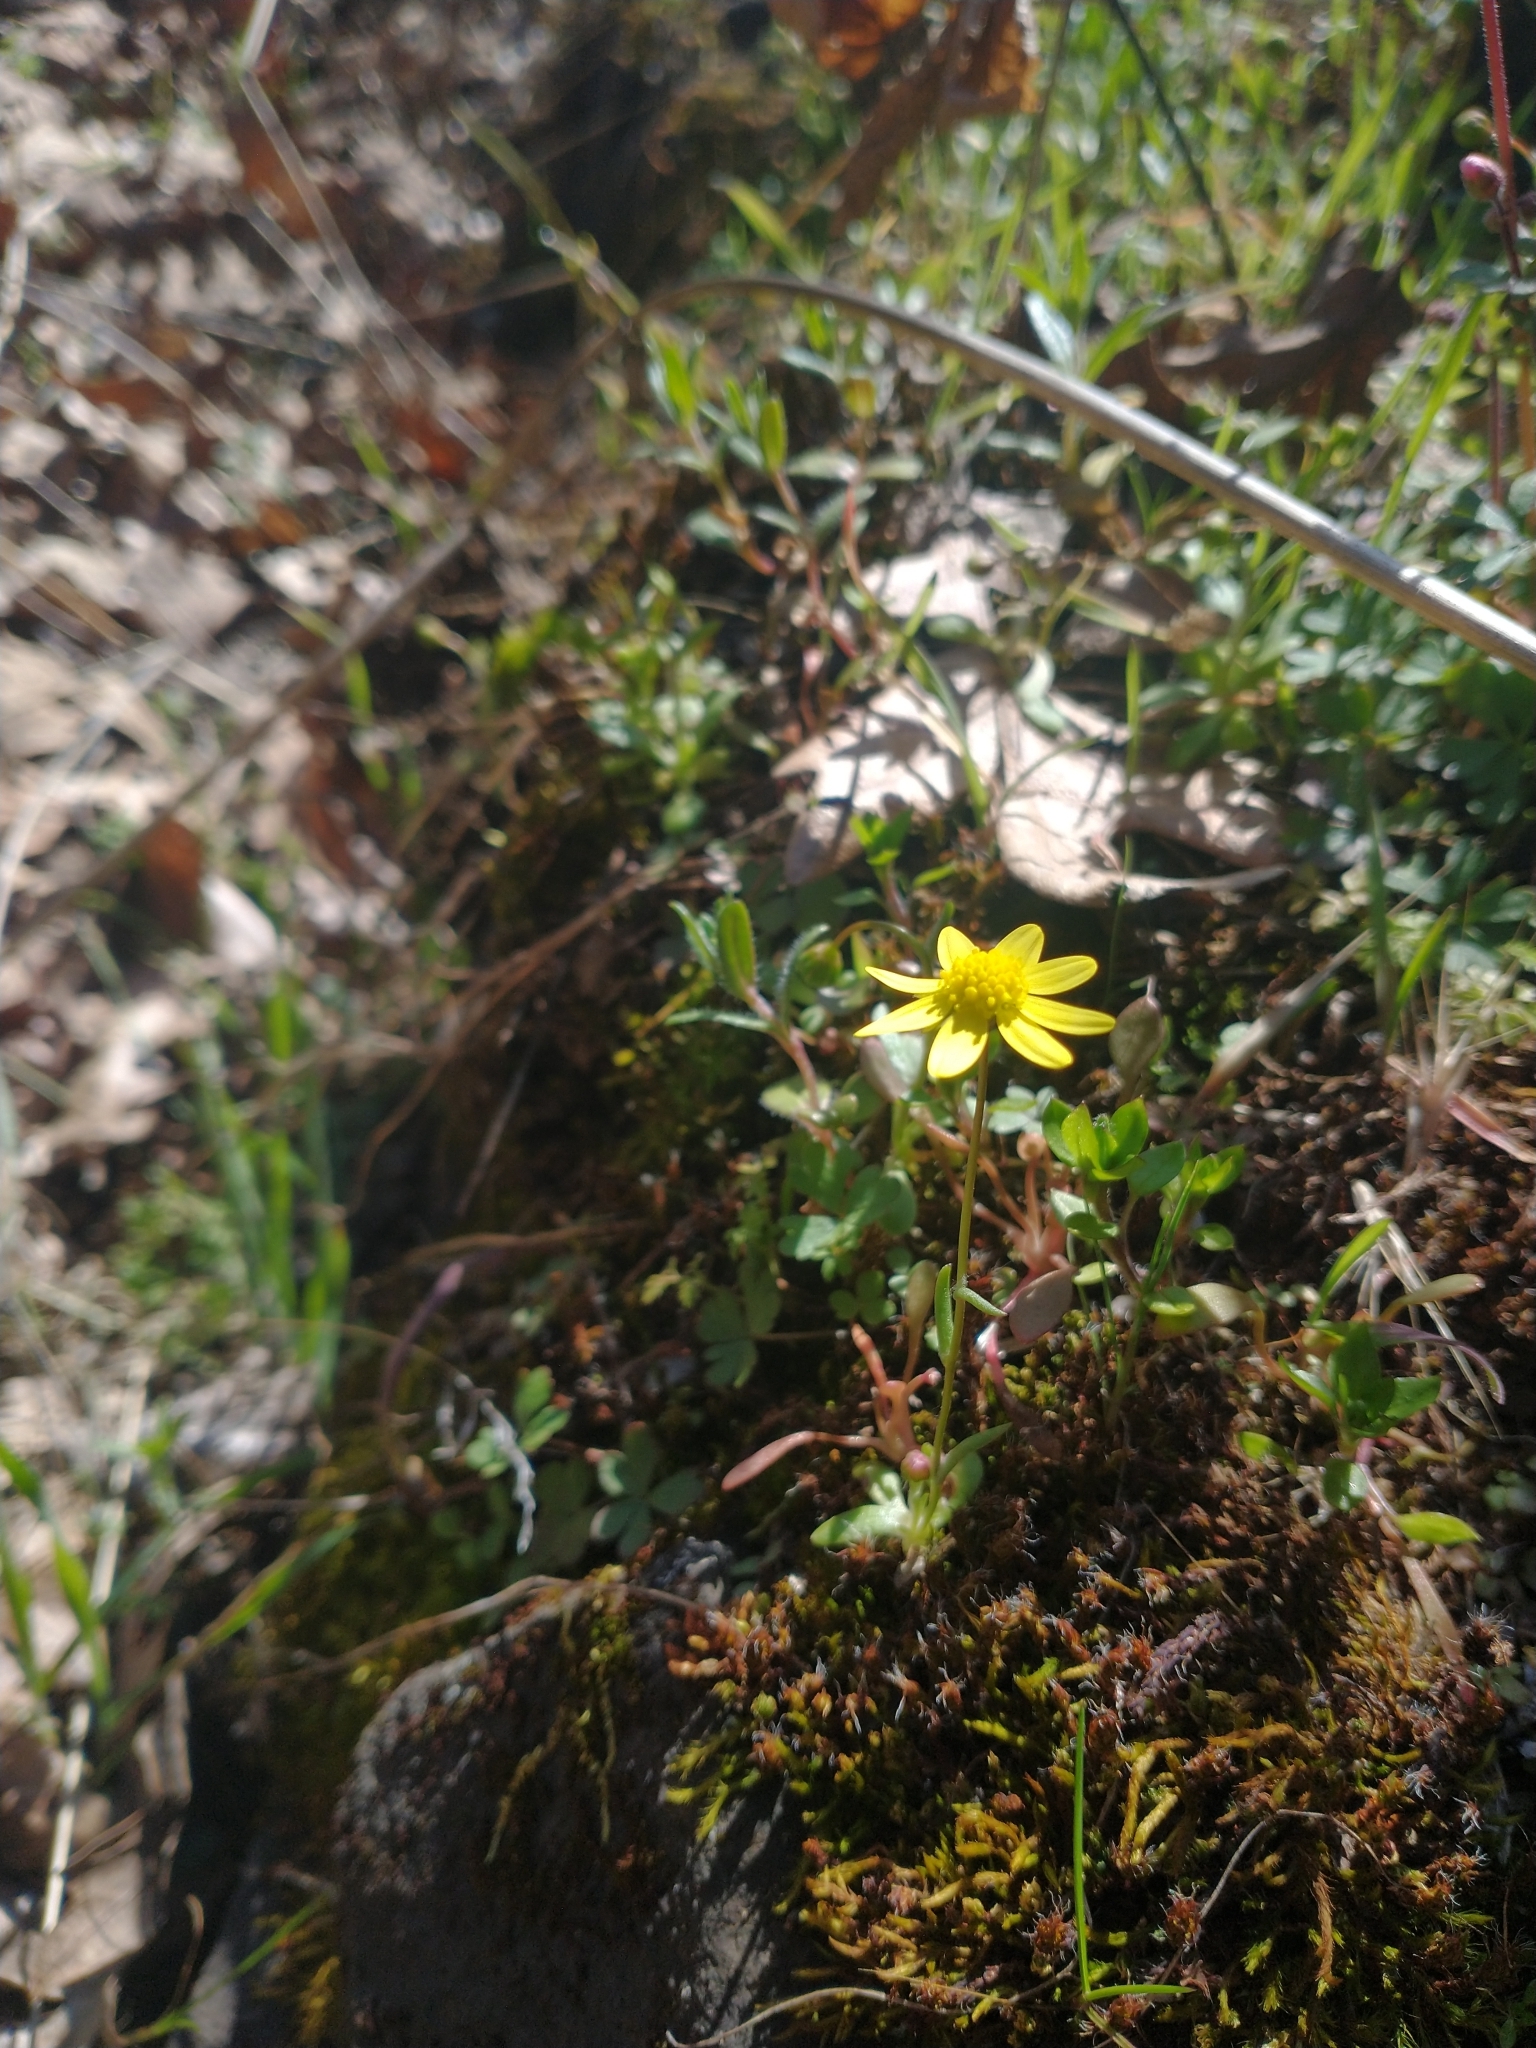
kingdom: Plantae
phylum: Tracheophyta
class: Magnoliopsida
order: Asterales
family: Asteraceae
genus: Crocidium
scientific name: Crocidium multicaule
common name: Common spring gold
